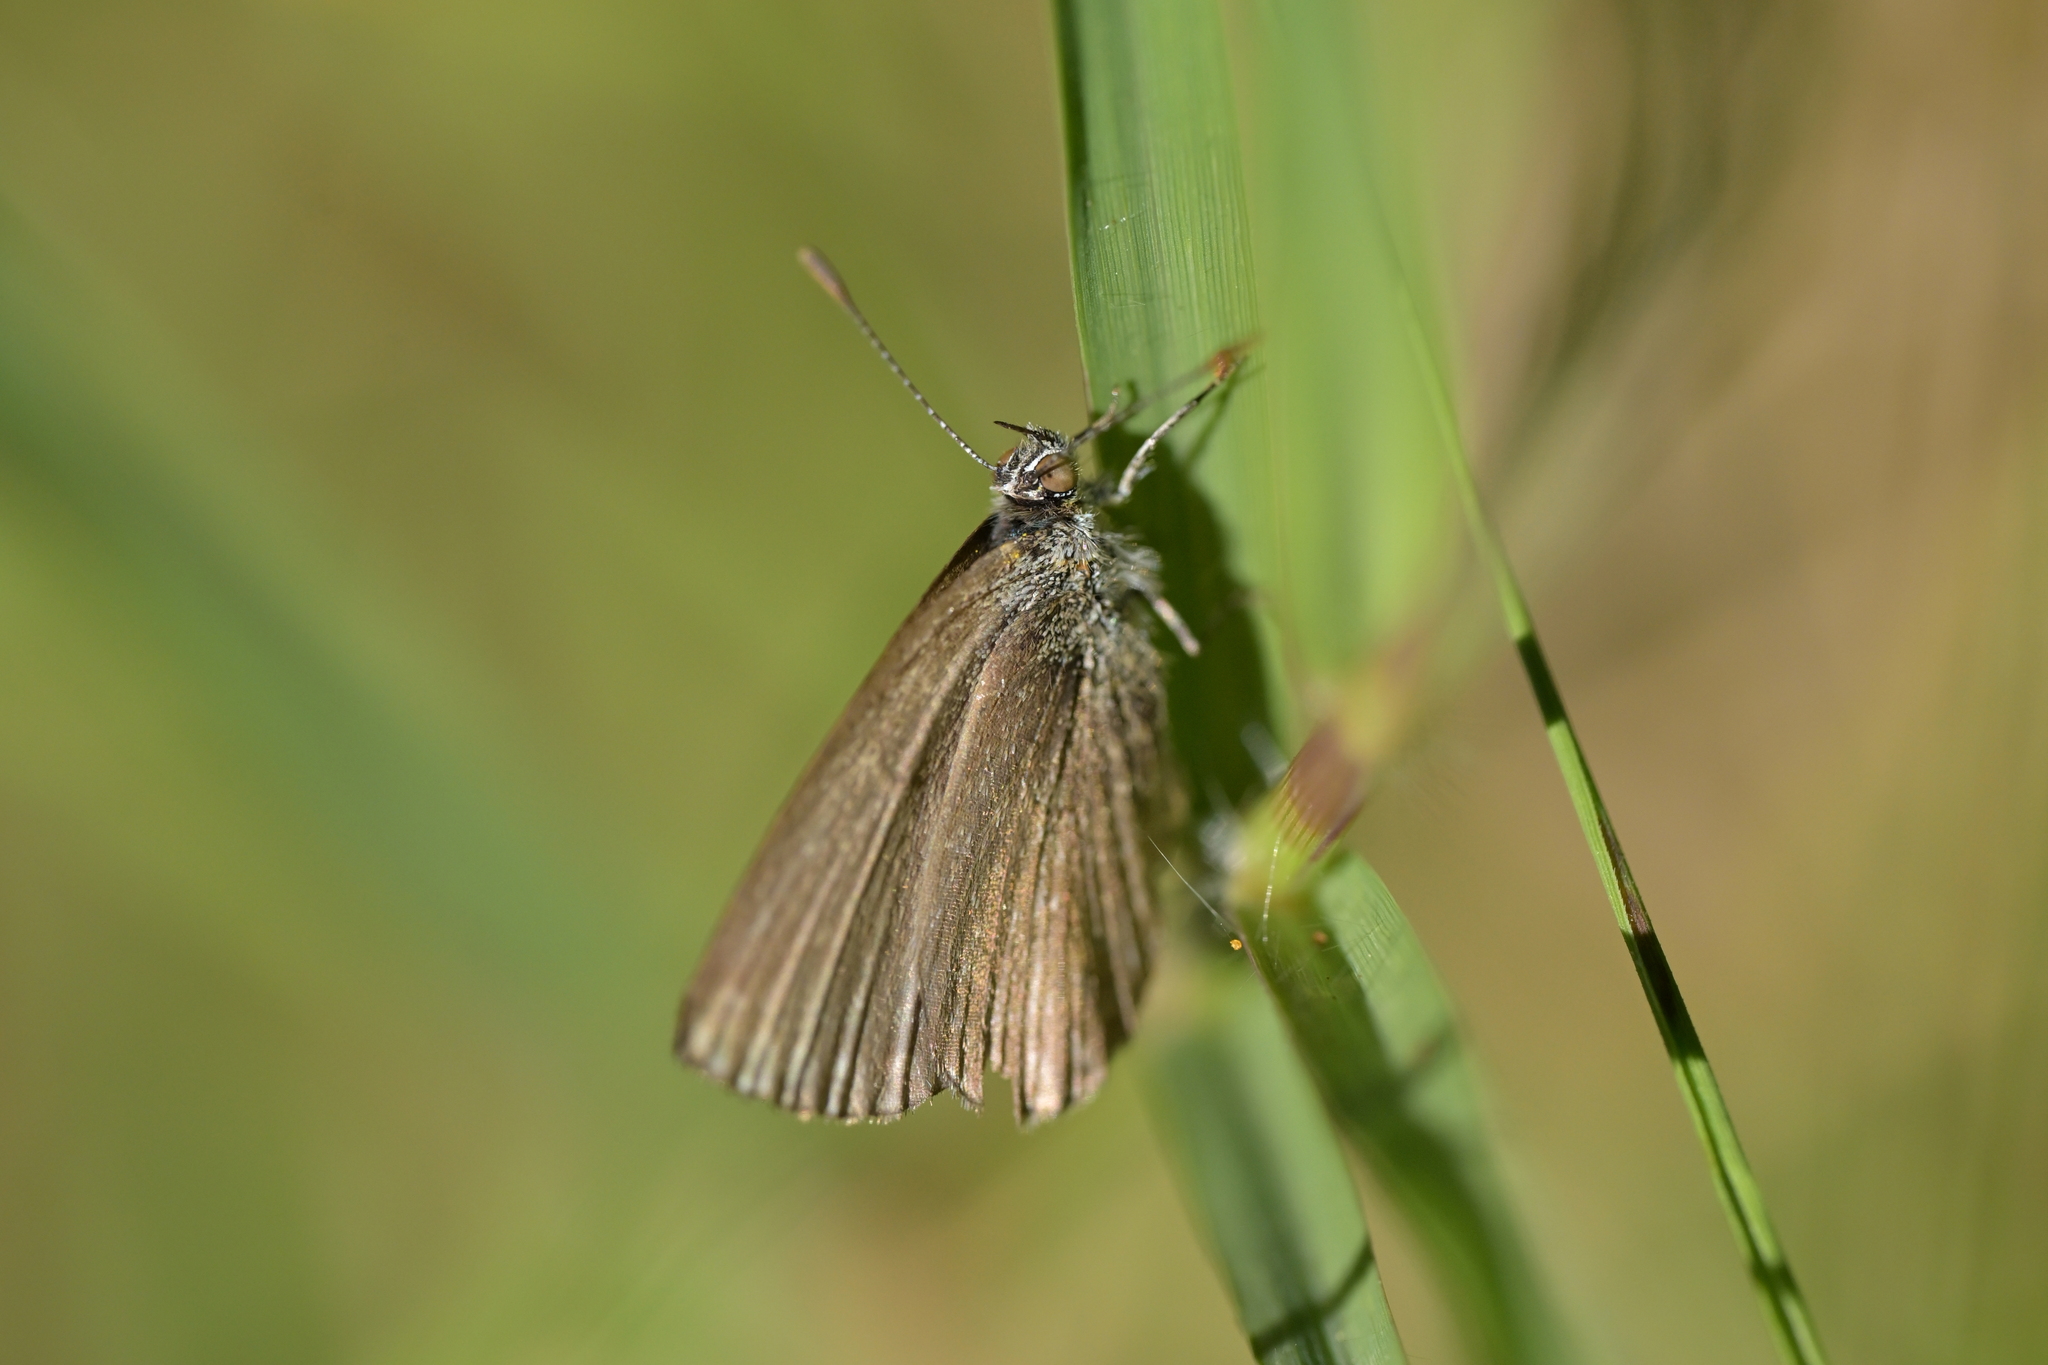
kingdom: Animalia
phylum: Arthropoda
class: Insecta
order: Lepidoptera
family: Lycaenidae
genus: Zizina
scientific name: Zizina labradus
